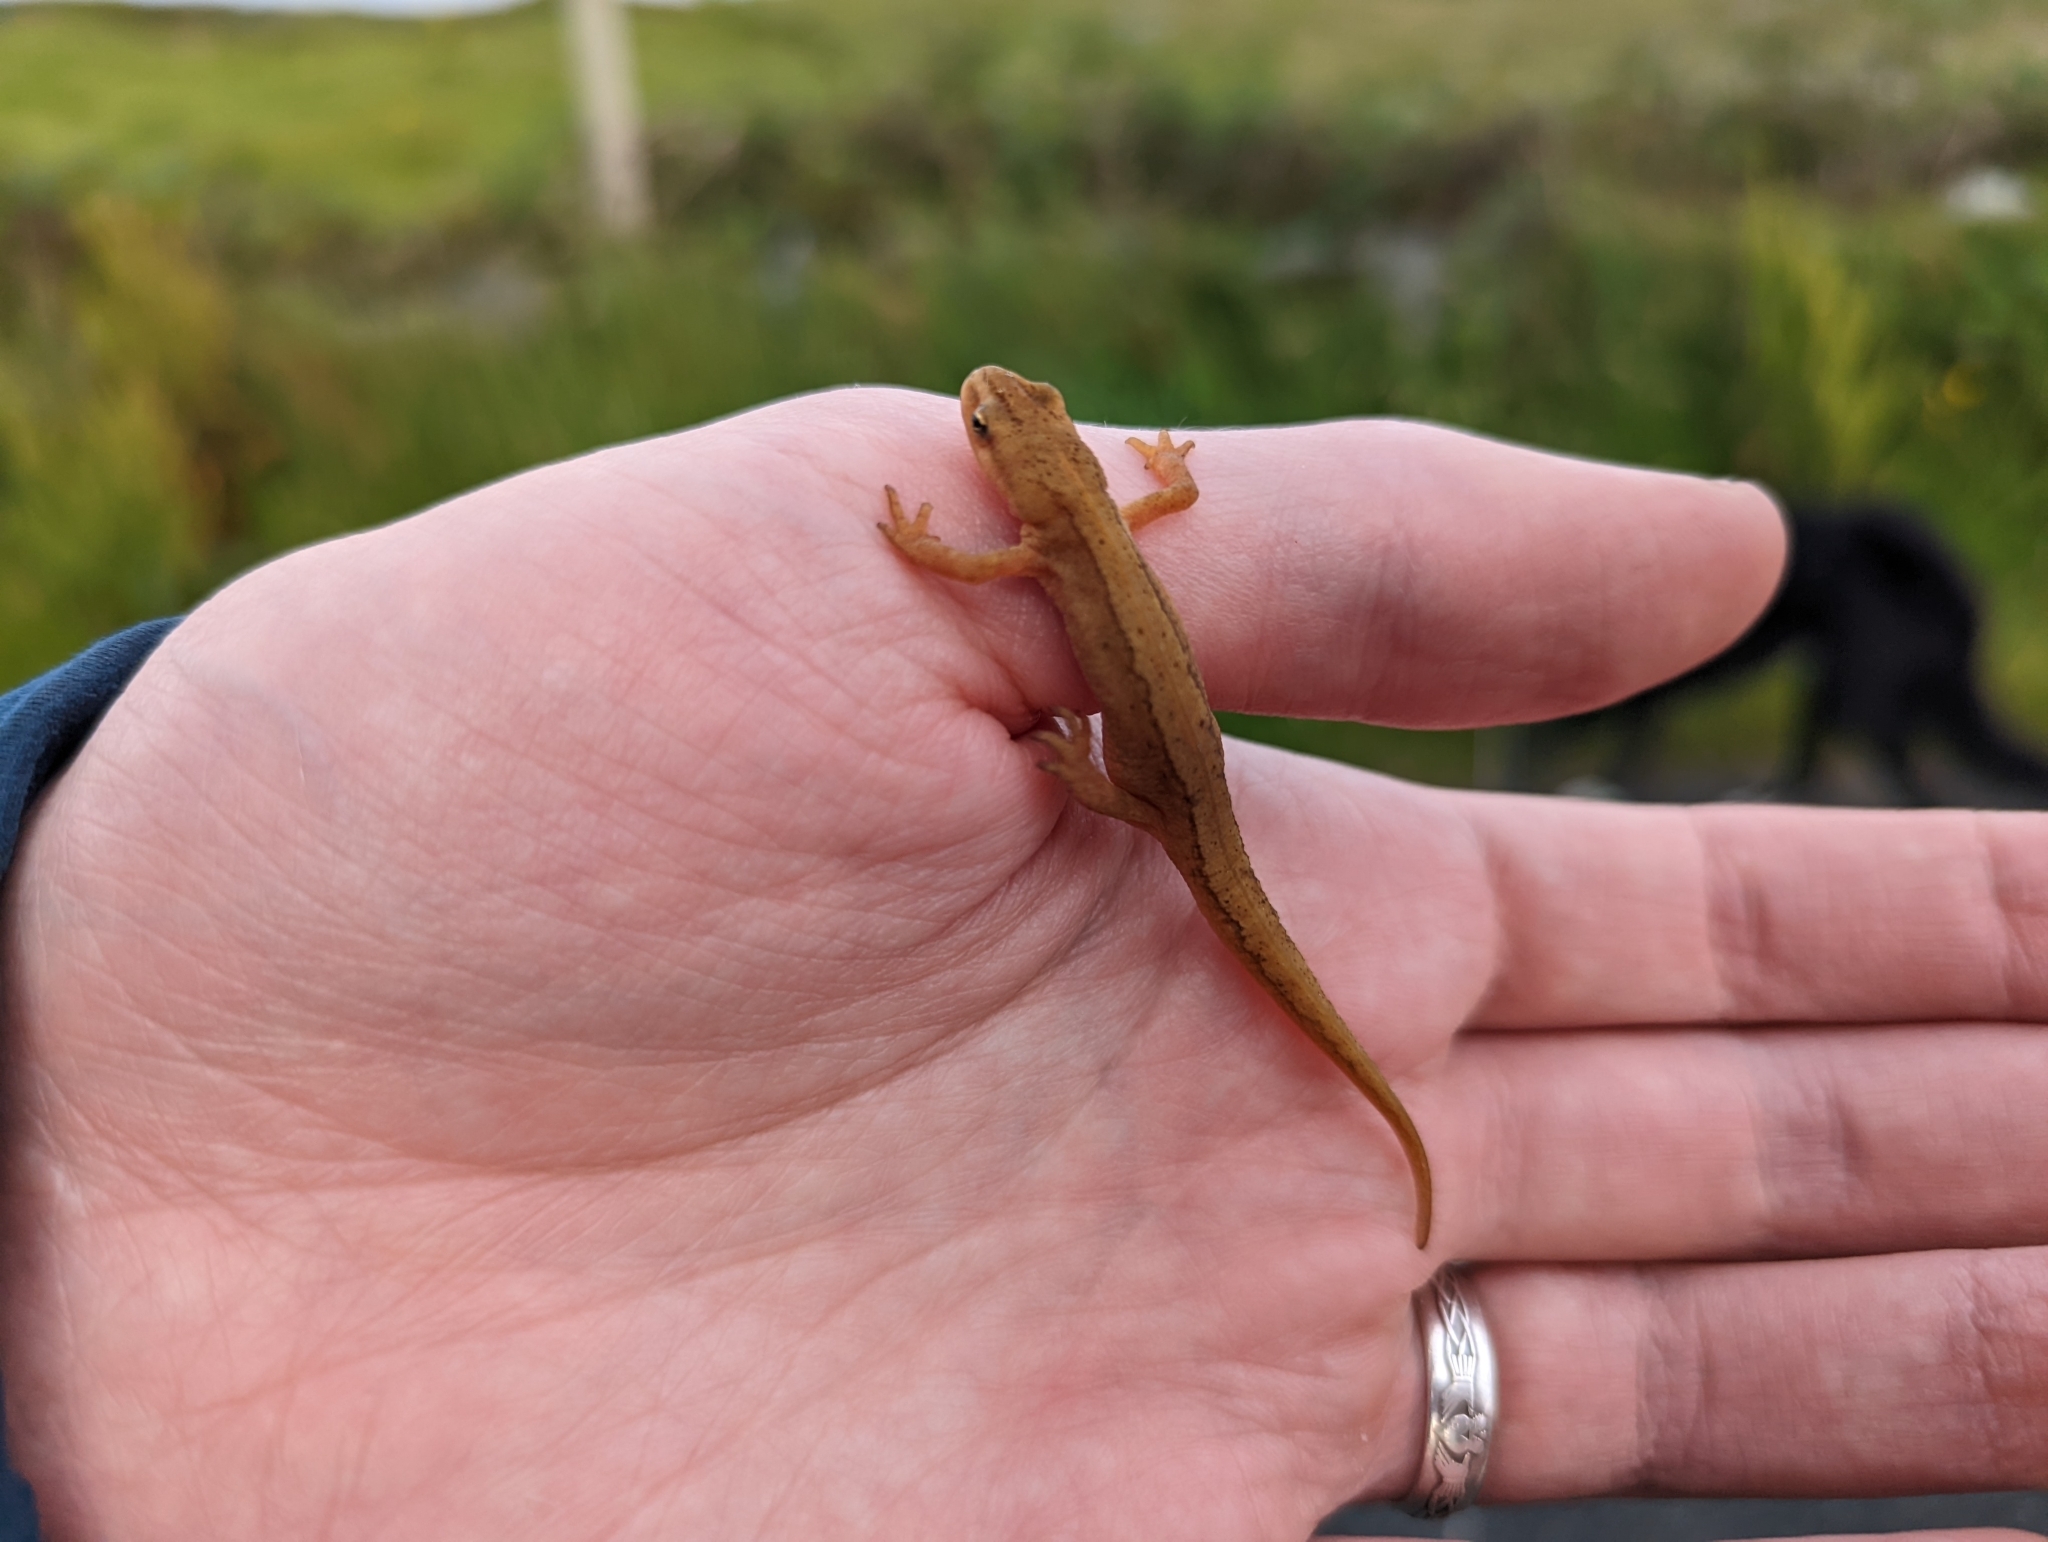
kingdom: Animalia
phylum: Chordata
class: Amphibia
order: Caudata
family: Salamandridae
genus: Lissotriton
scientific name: Lissotriton vulgaris
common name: Smooth newt
